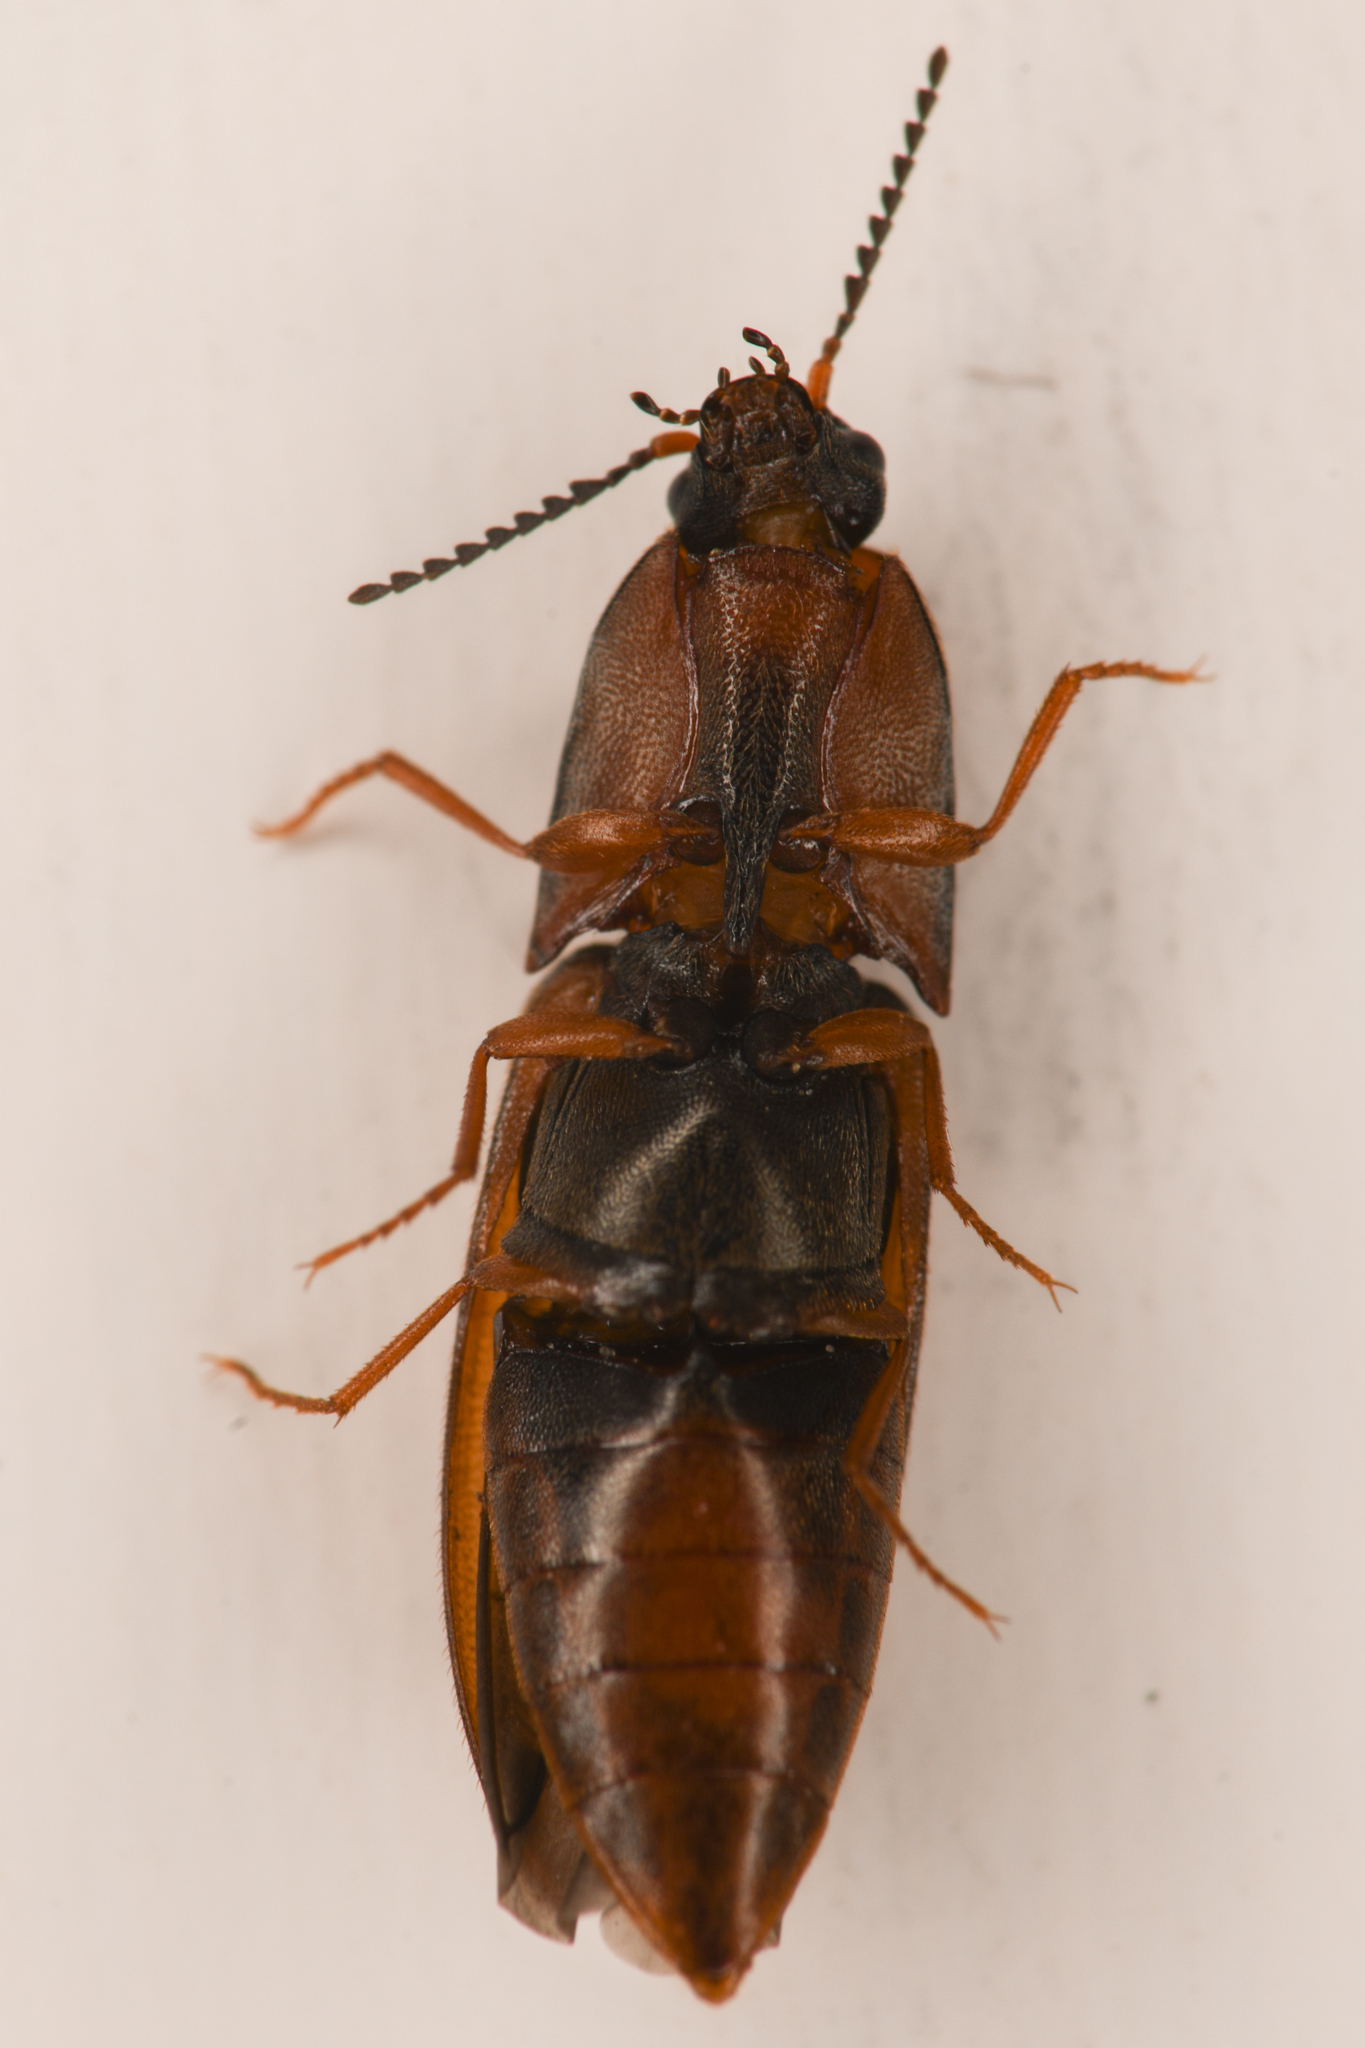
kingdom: Animalia
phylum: Arthropoda
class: Insecta
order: Coleoptera
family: Elateridae
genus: Sericus
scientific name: Sericus incongruus
